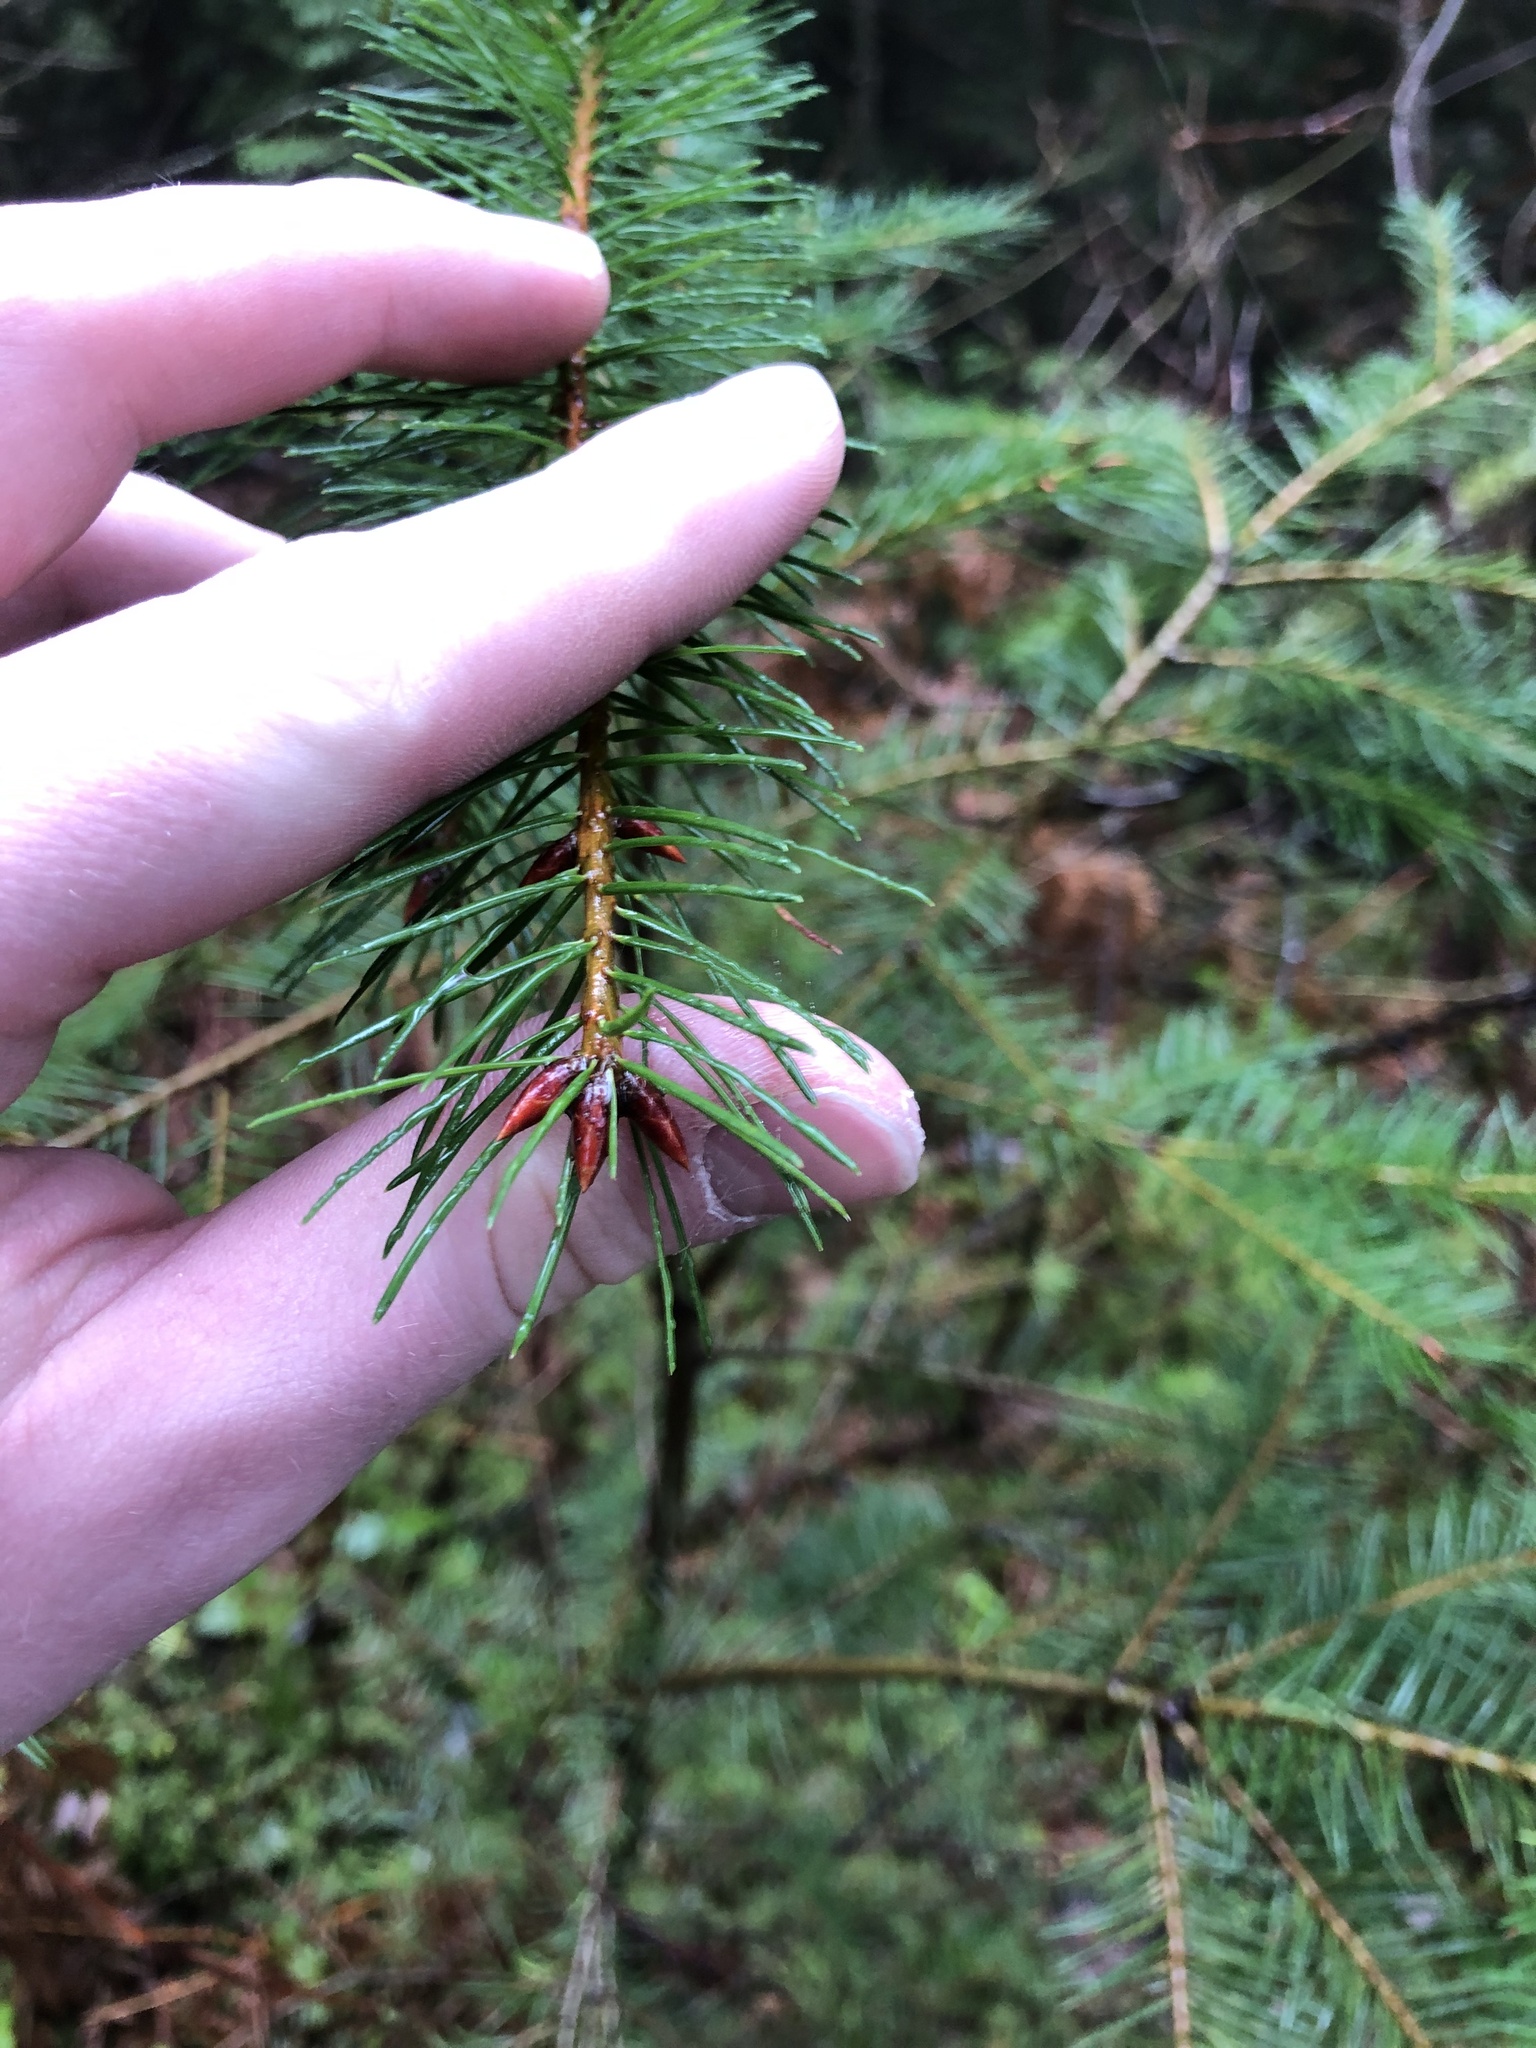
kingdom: Plantae
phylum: Tracheophyta
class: Pinopsida
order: Pinales
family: Pinaceae
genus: Pseudotsuga
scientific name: Pseudotsuga menziesii
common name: Douglas fir
